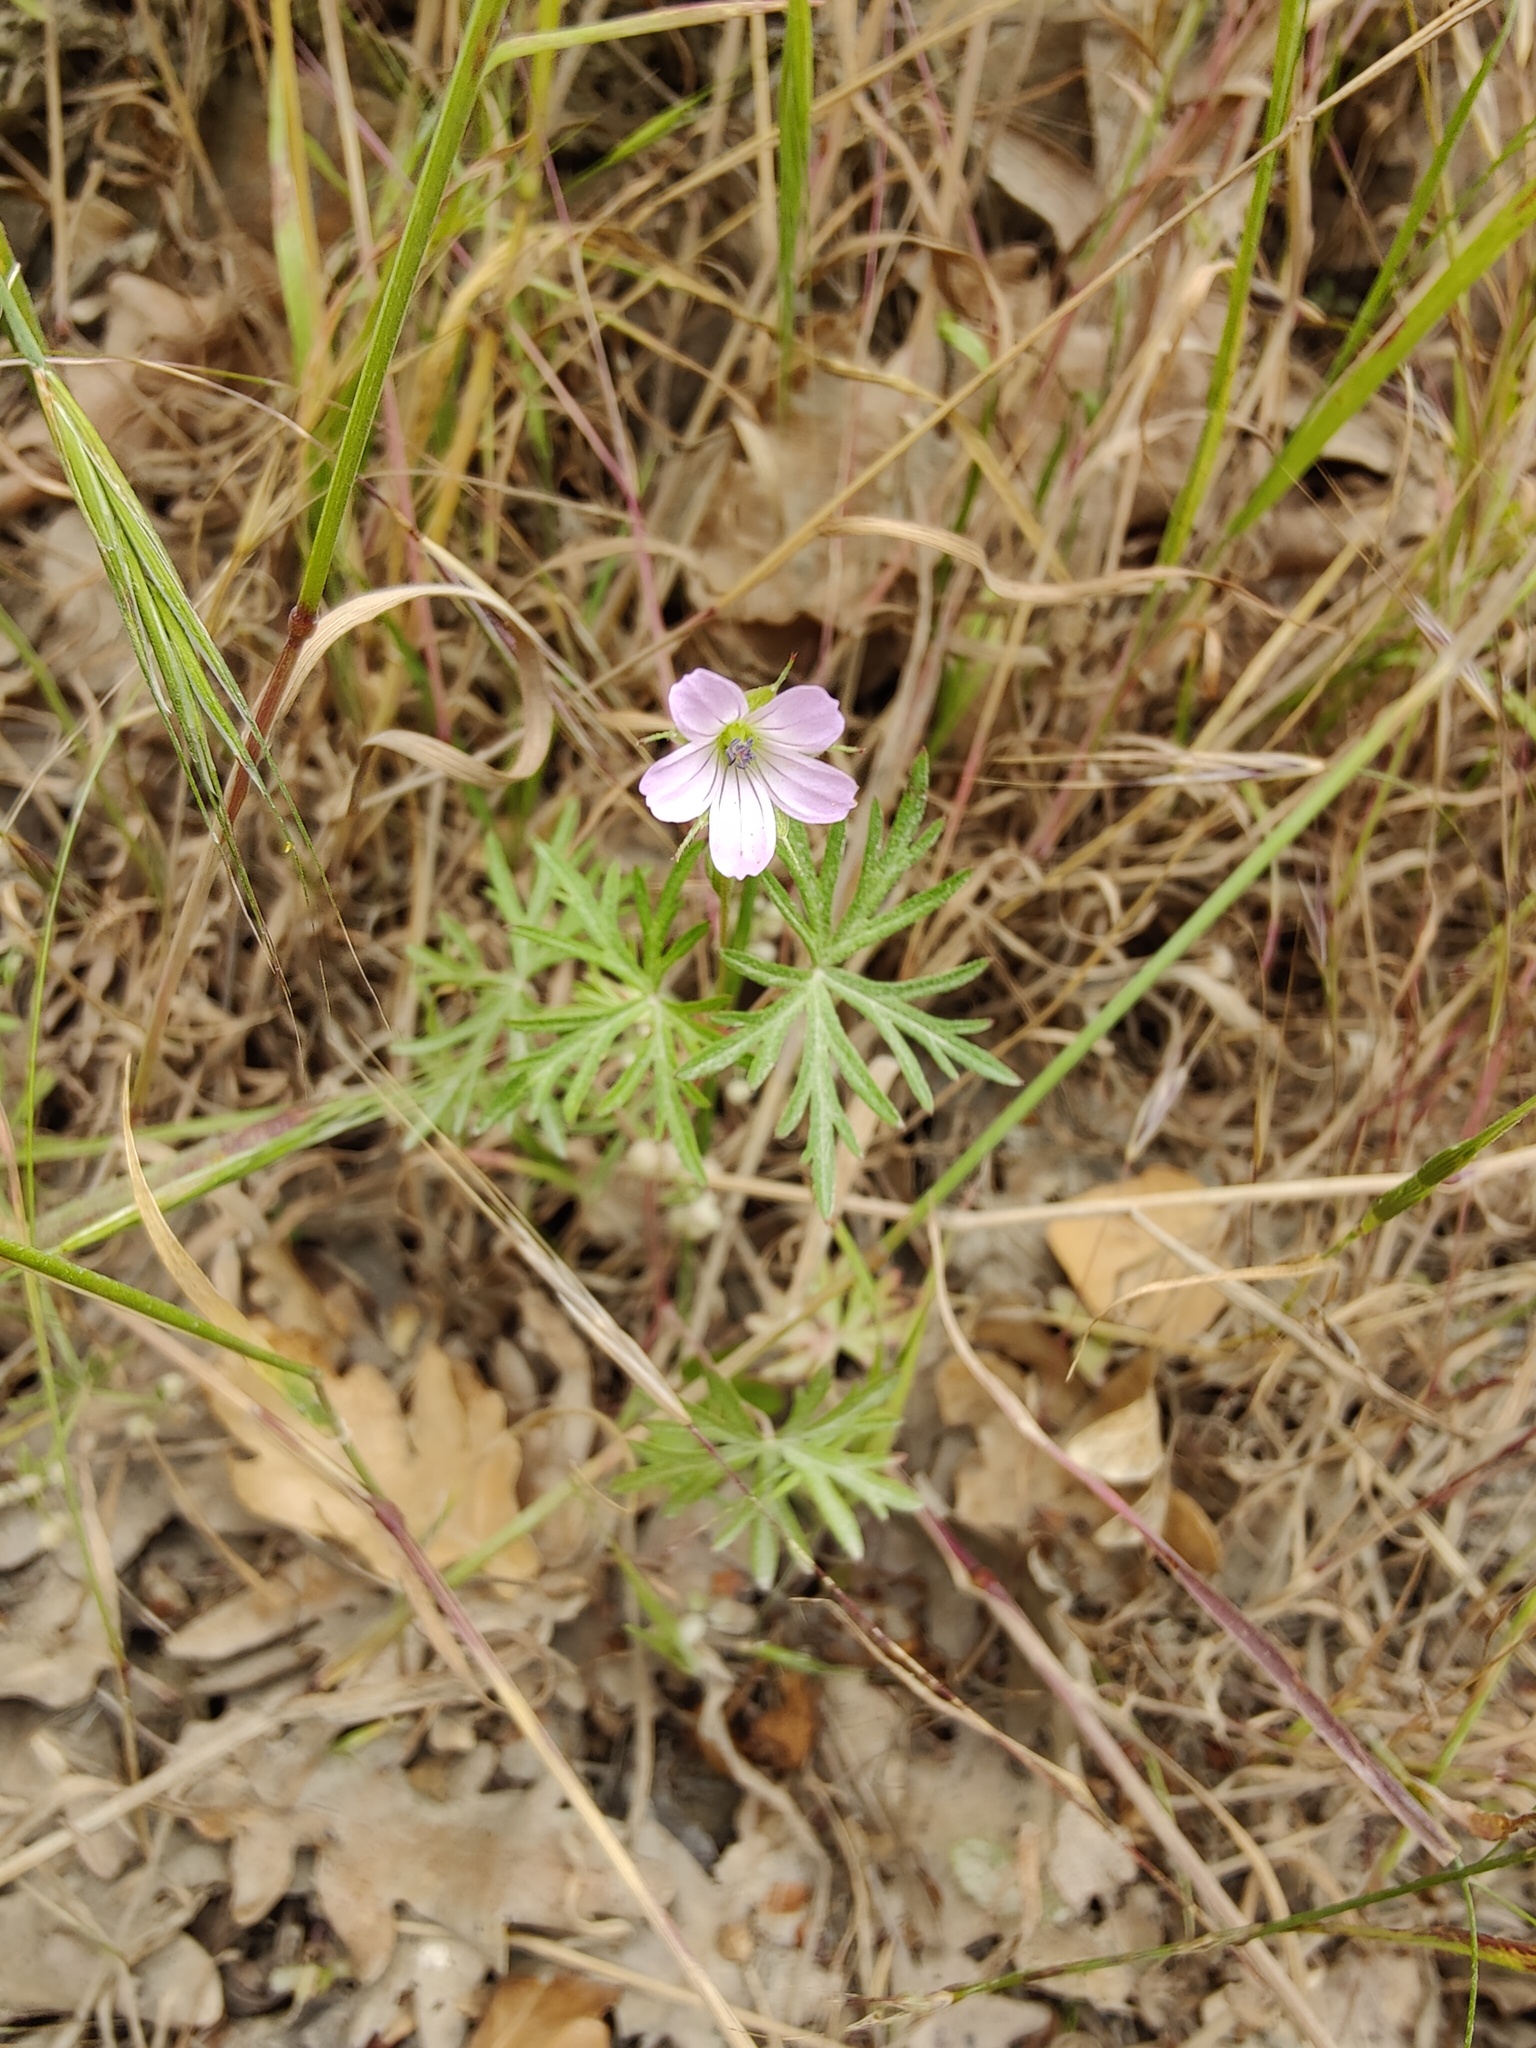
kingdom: Plantae
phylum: Tracheophyta
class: Magnoliopsida
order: Geraniales
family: Geraniaceae
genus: Geranium
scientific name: Geranium columbinum
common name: Long-stalked crane's-bill
